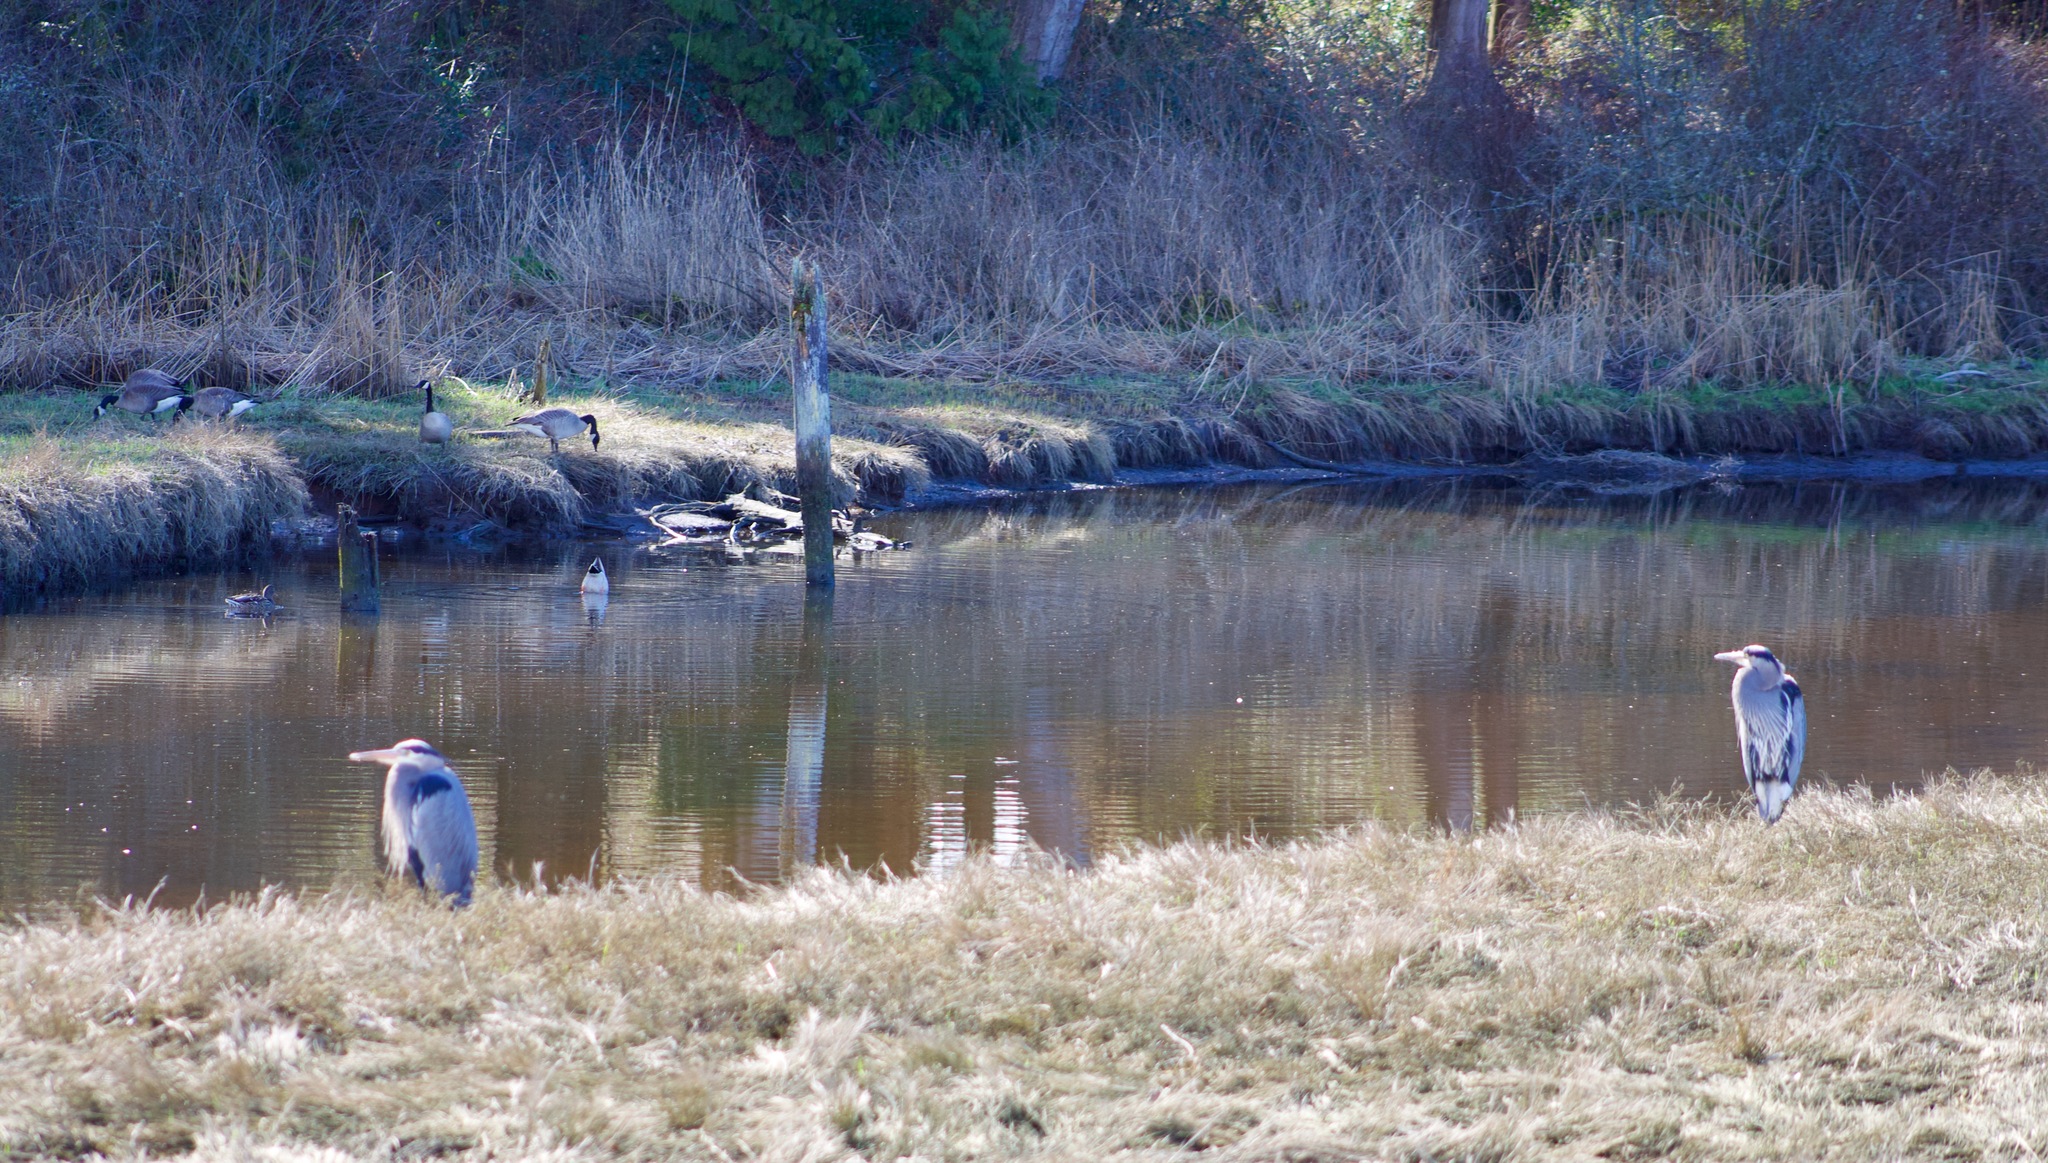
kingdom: Animalia
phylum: Chordata
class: Aves
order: Pelecaniformes
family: Ardeidae
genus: Ardea
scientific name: Ardea herodias
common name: Great blue heron
